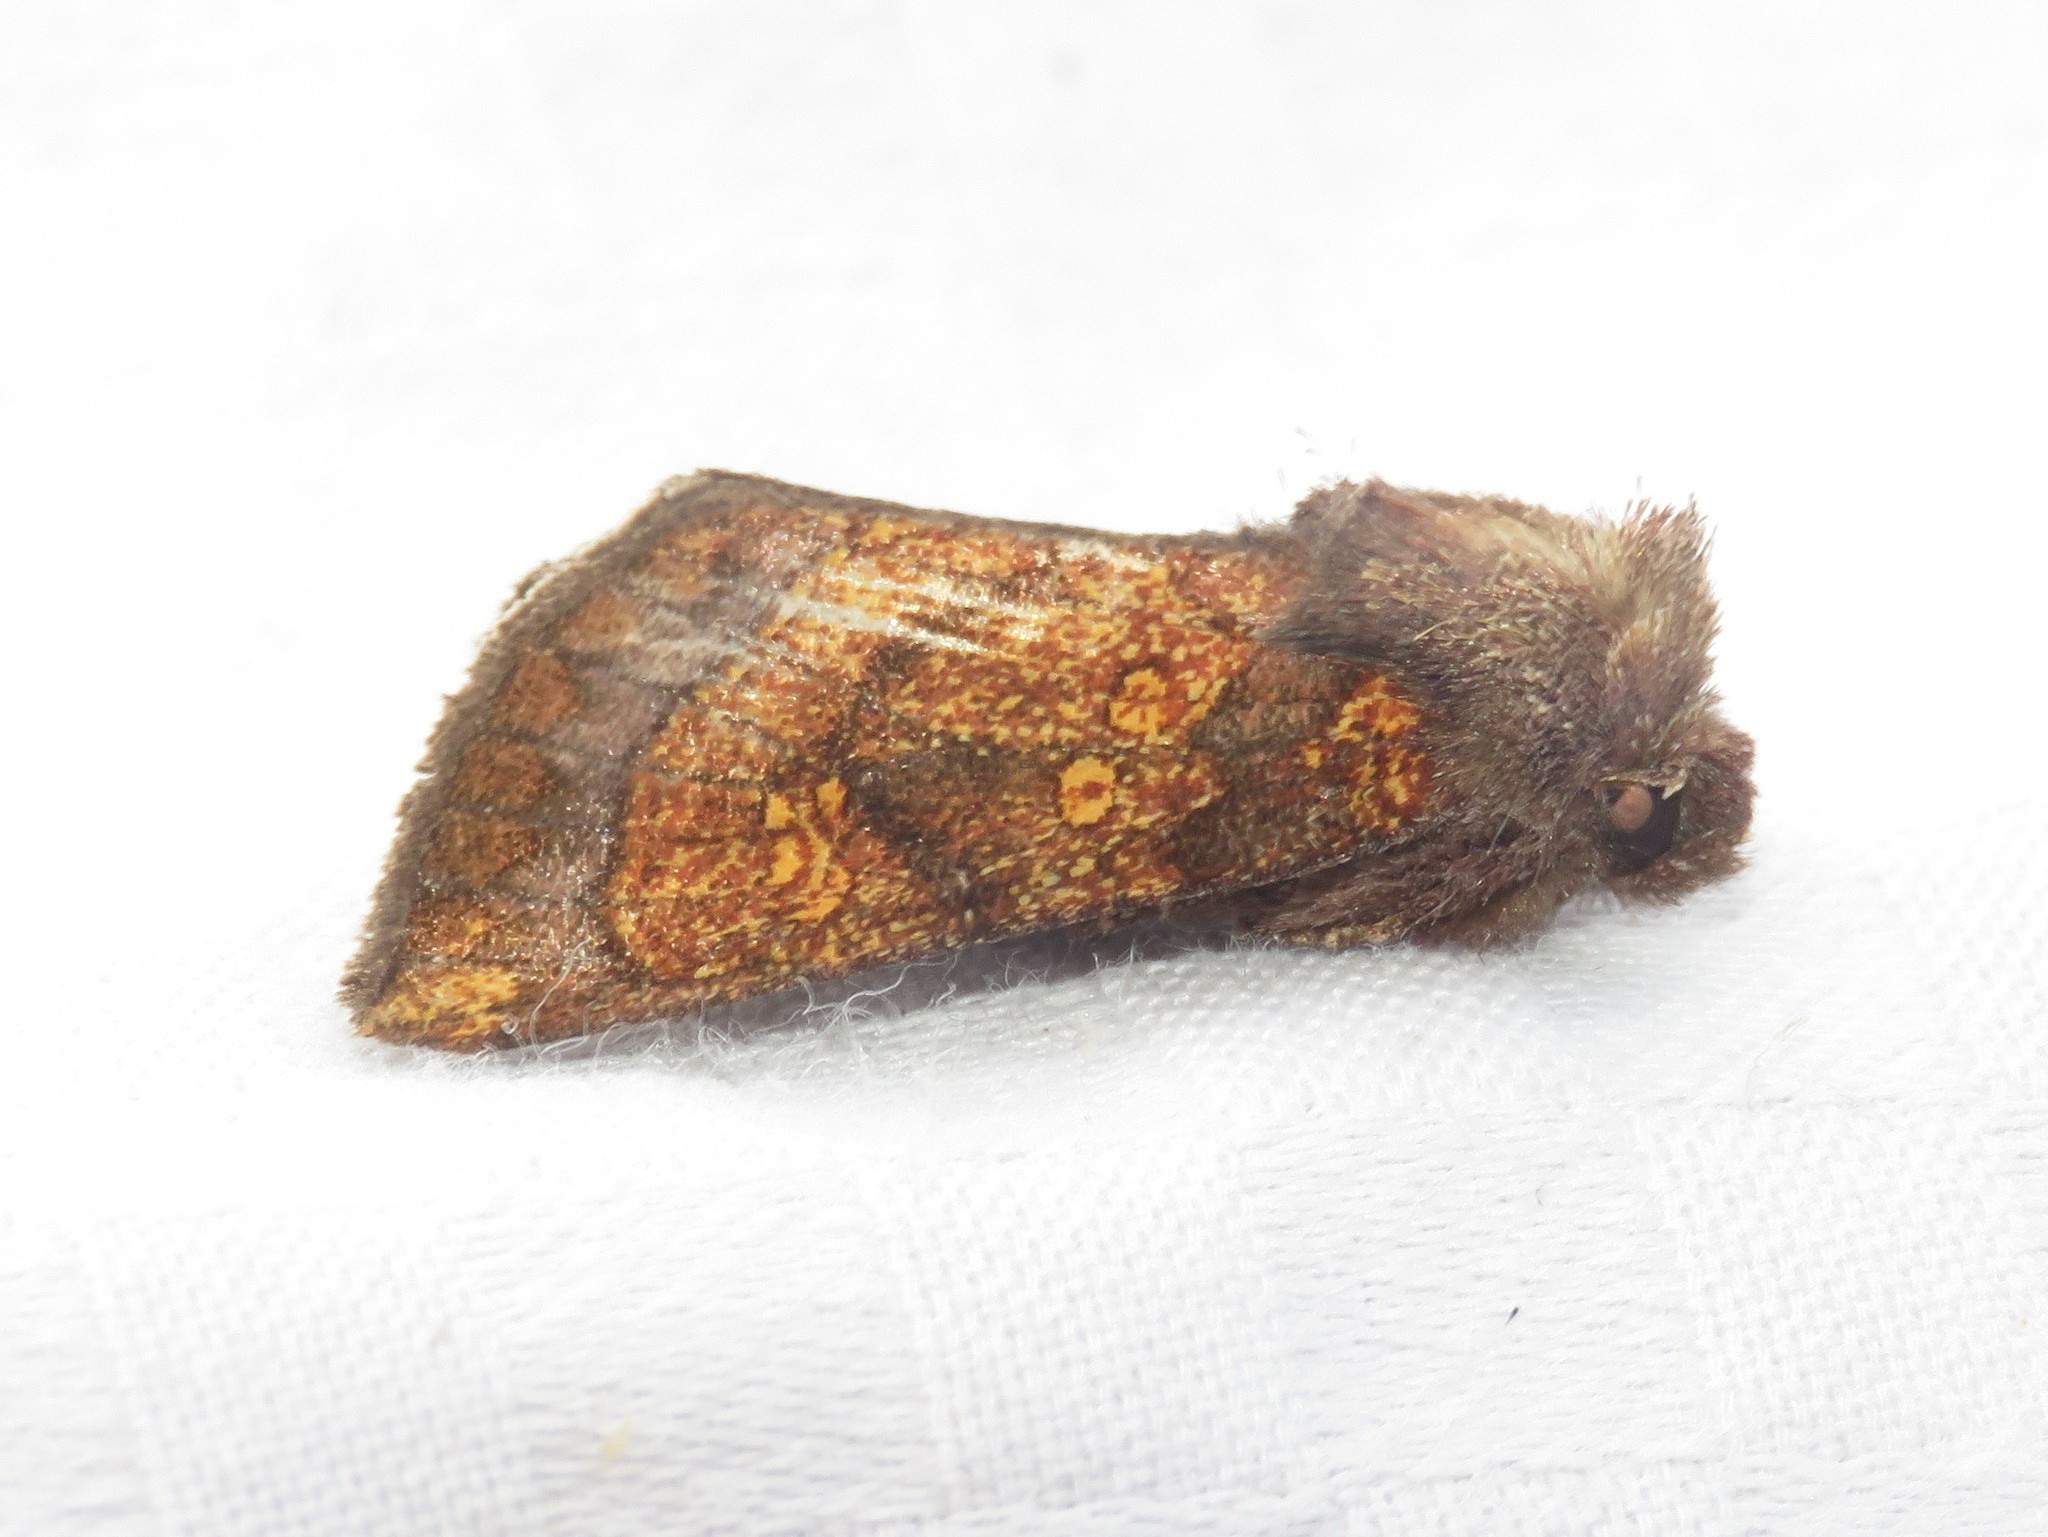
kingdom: Animalia
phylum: Arthropoda
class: Insecta
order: Lepidoptera
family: Noctuidae
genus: Papaipema
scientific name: Papaipema impecuniosa
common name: Aster borer moth
